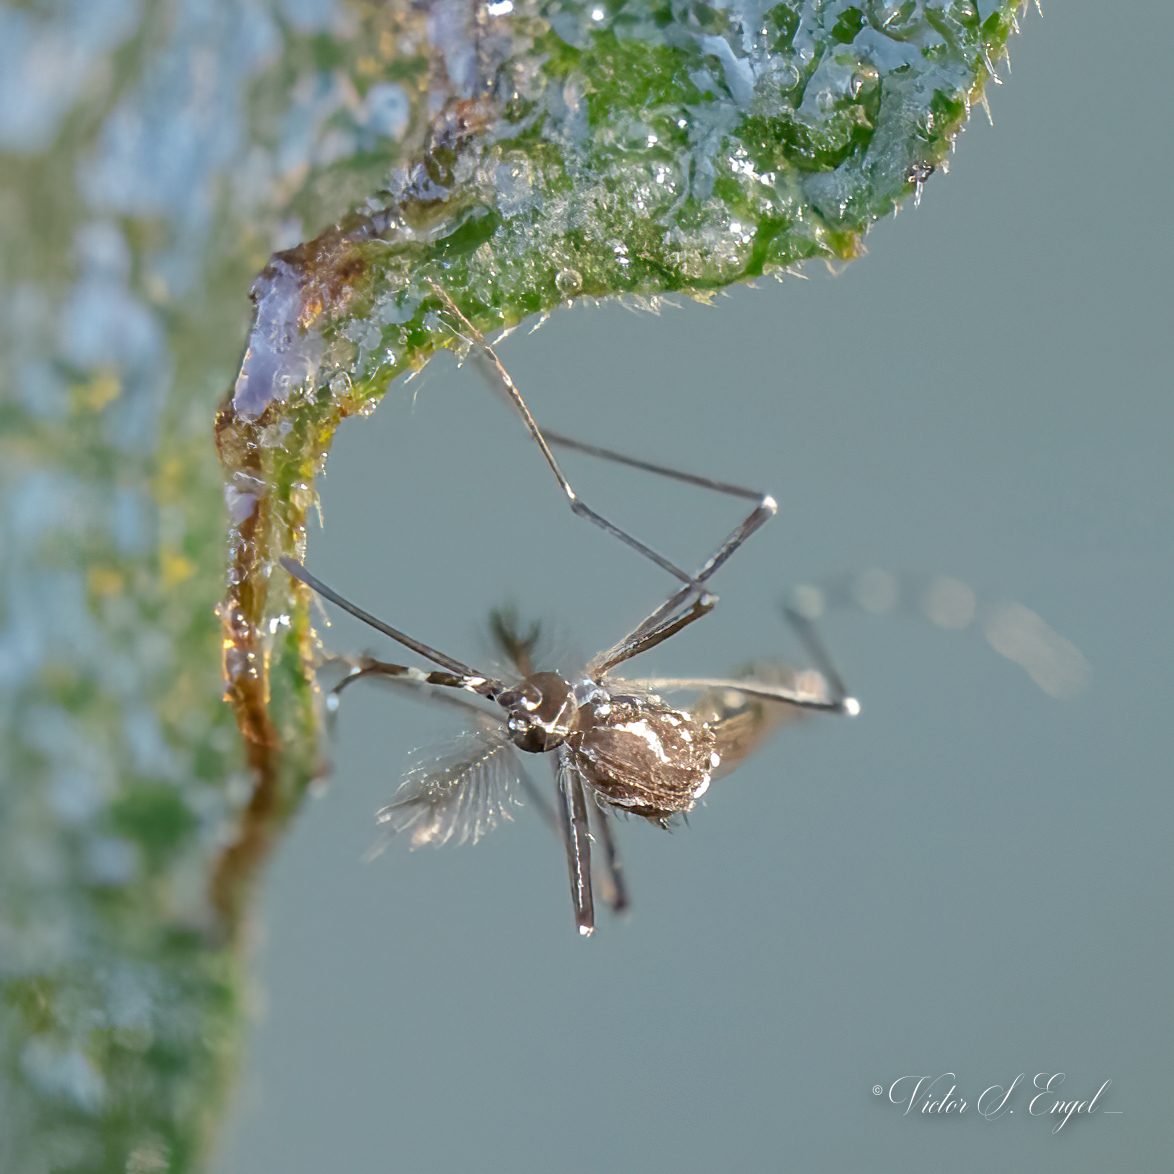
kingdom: Animalia
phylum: Arthropoda
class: Insecta
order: Diptera
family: Culicidae
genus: Aedes
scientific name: Aedes aegypti
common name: Yellow fever mosquito
